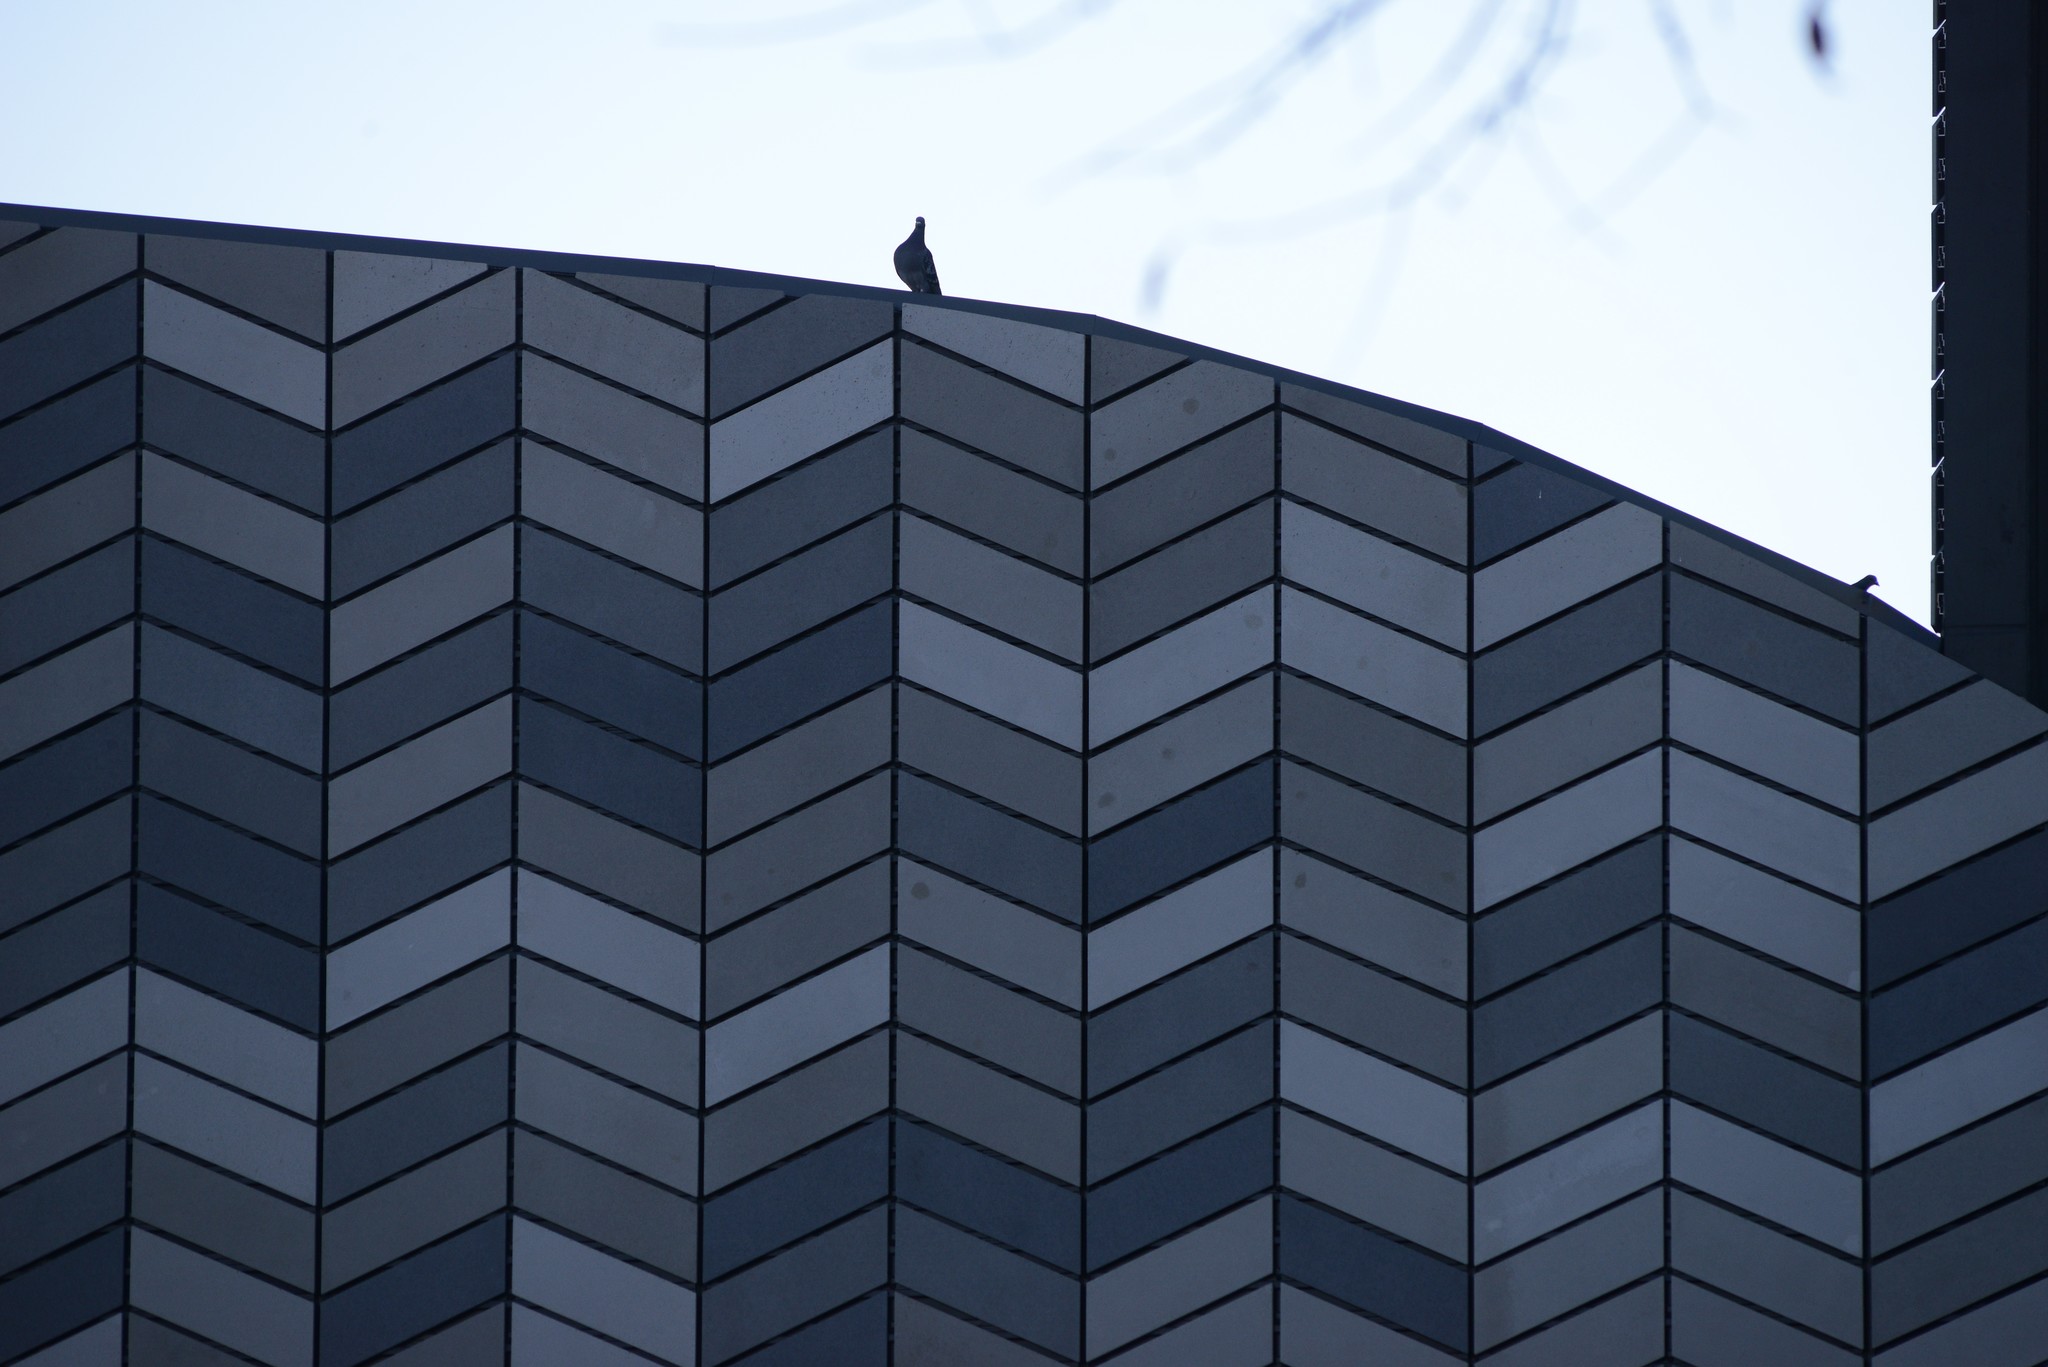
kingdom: Animalia
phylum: Chordata
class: Aves
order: Columbiformes
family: Columbidae
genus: Columba
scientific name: Columba livia
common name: Rock pigeon
